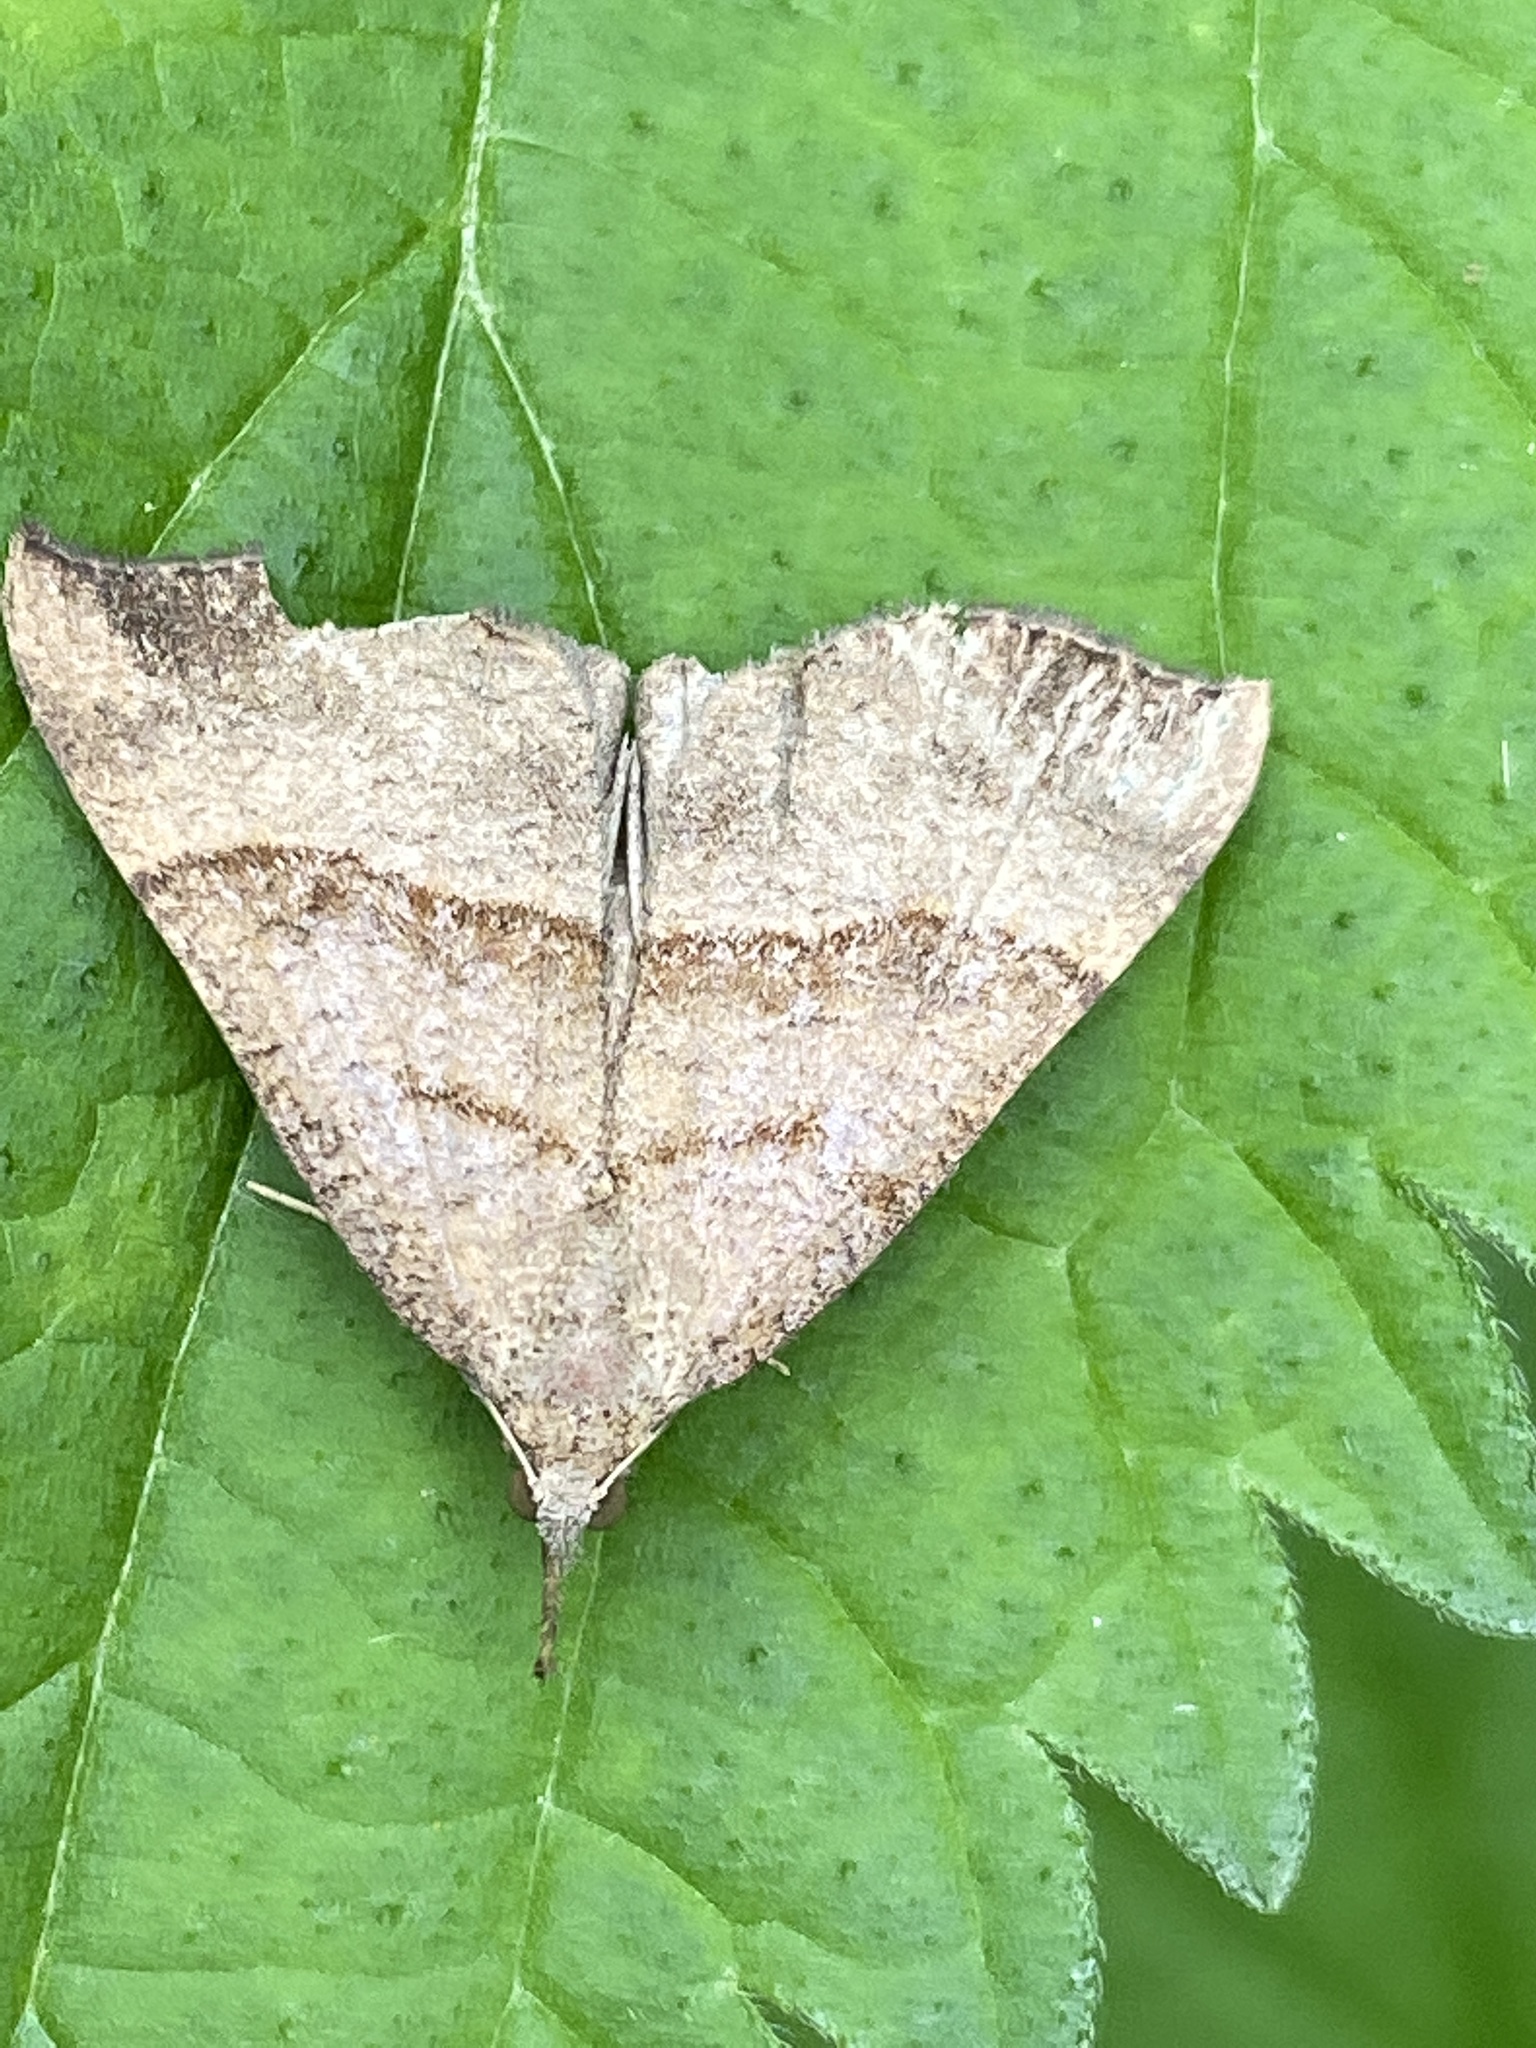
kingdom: Animalia
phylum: Arthropoda
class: Insecta
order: Lepidoptera
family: Erebidae
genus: Hypena
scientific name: Hypena proboscidalis
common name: Snout
